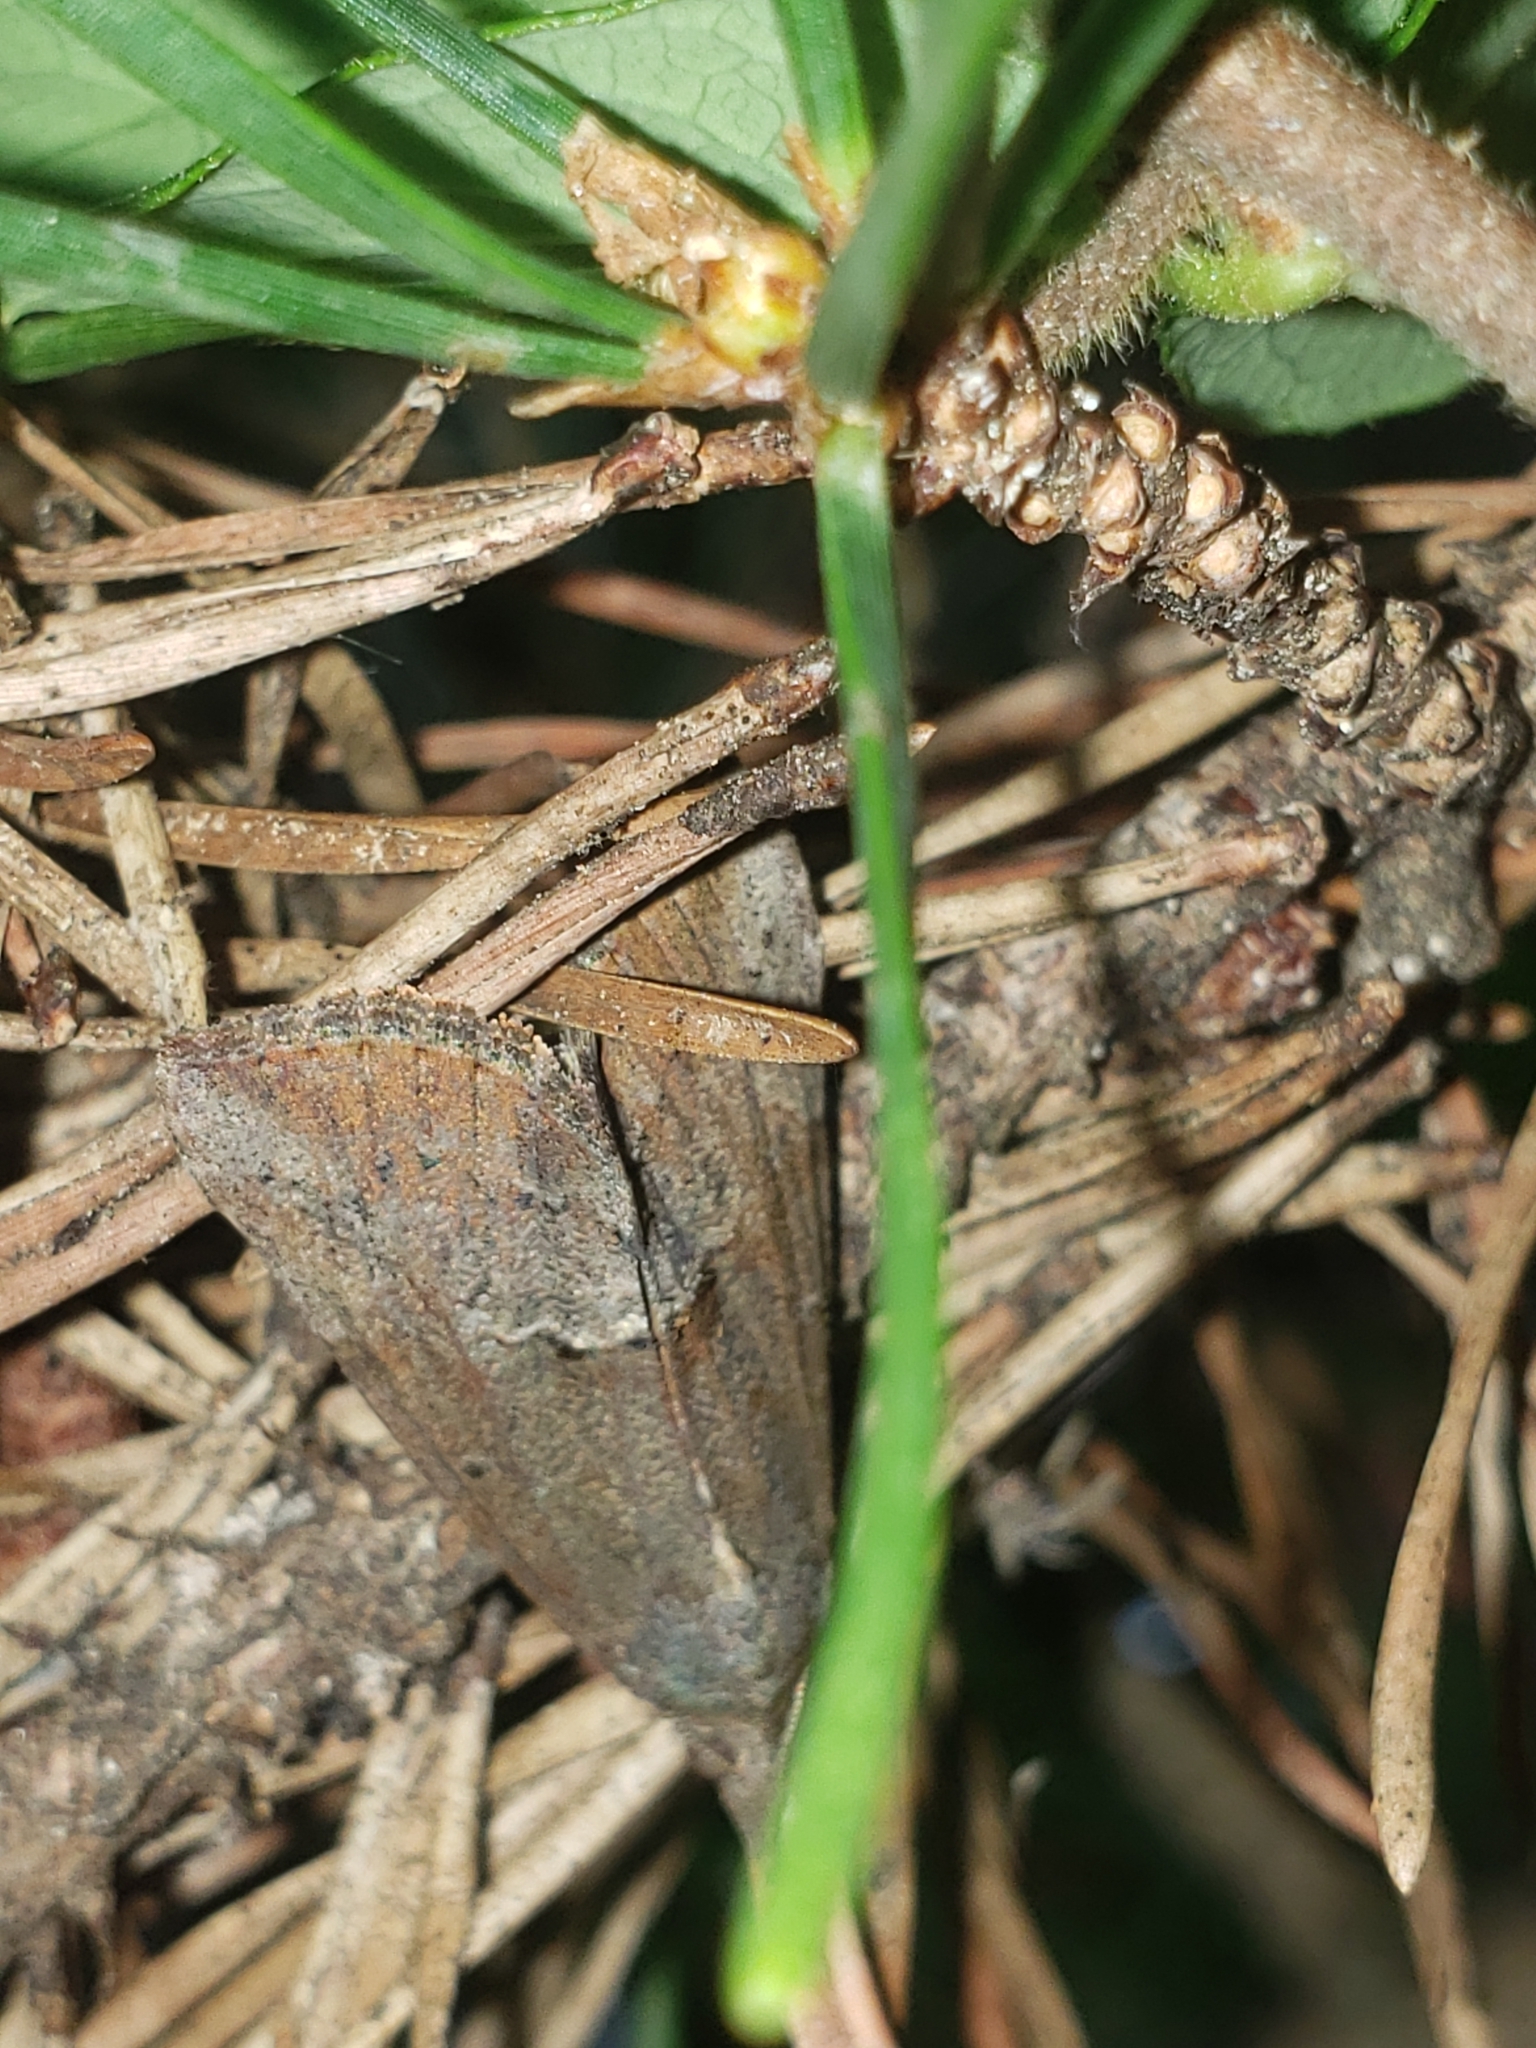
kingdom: Animalia
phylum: Arthropoda
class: Insecta
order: Lepidoptera
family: Erebidae
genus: Hypena
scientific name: Hypena scabra
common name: Green cloverworm
